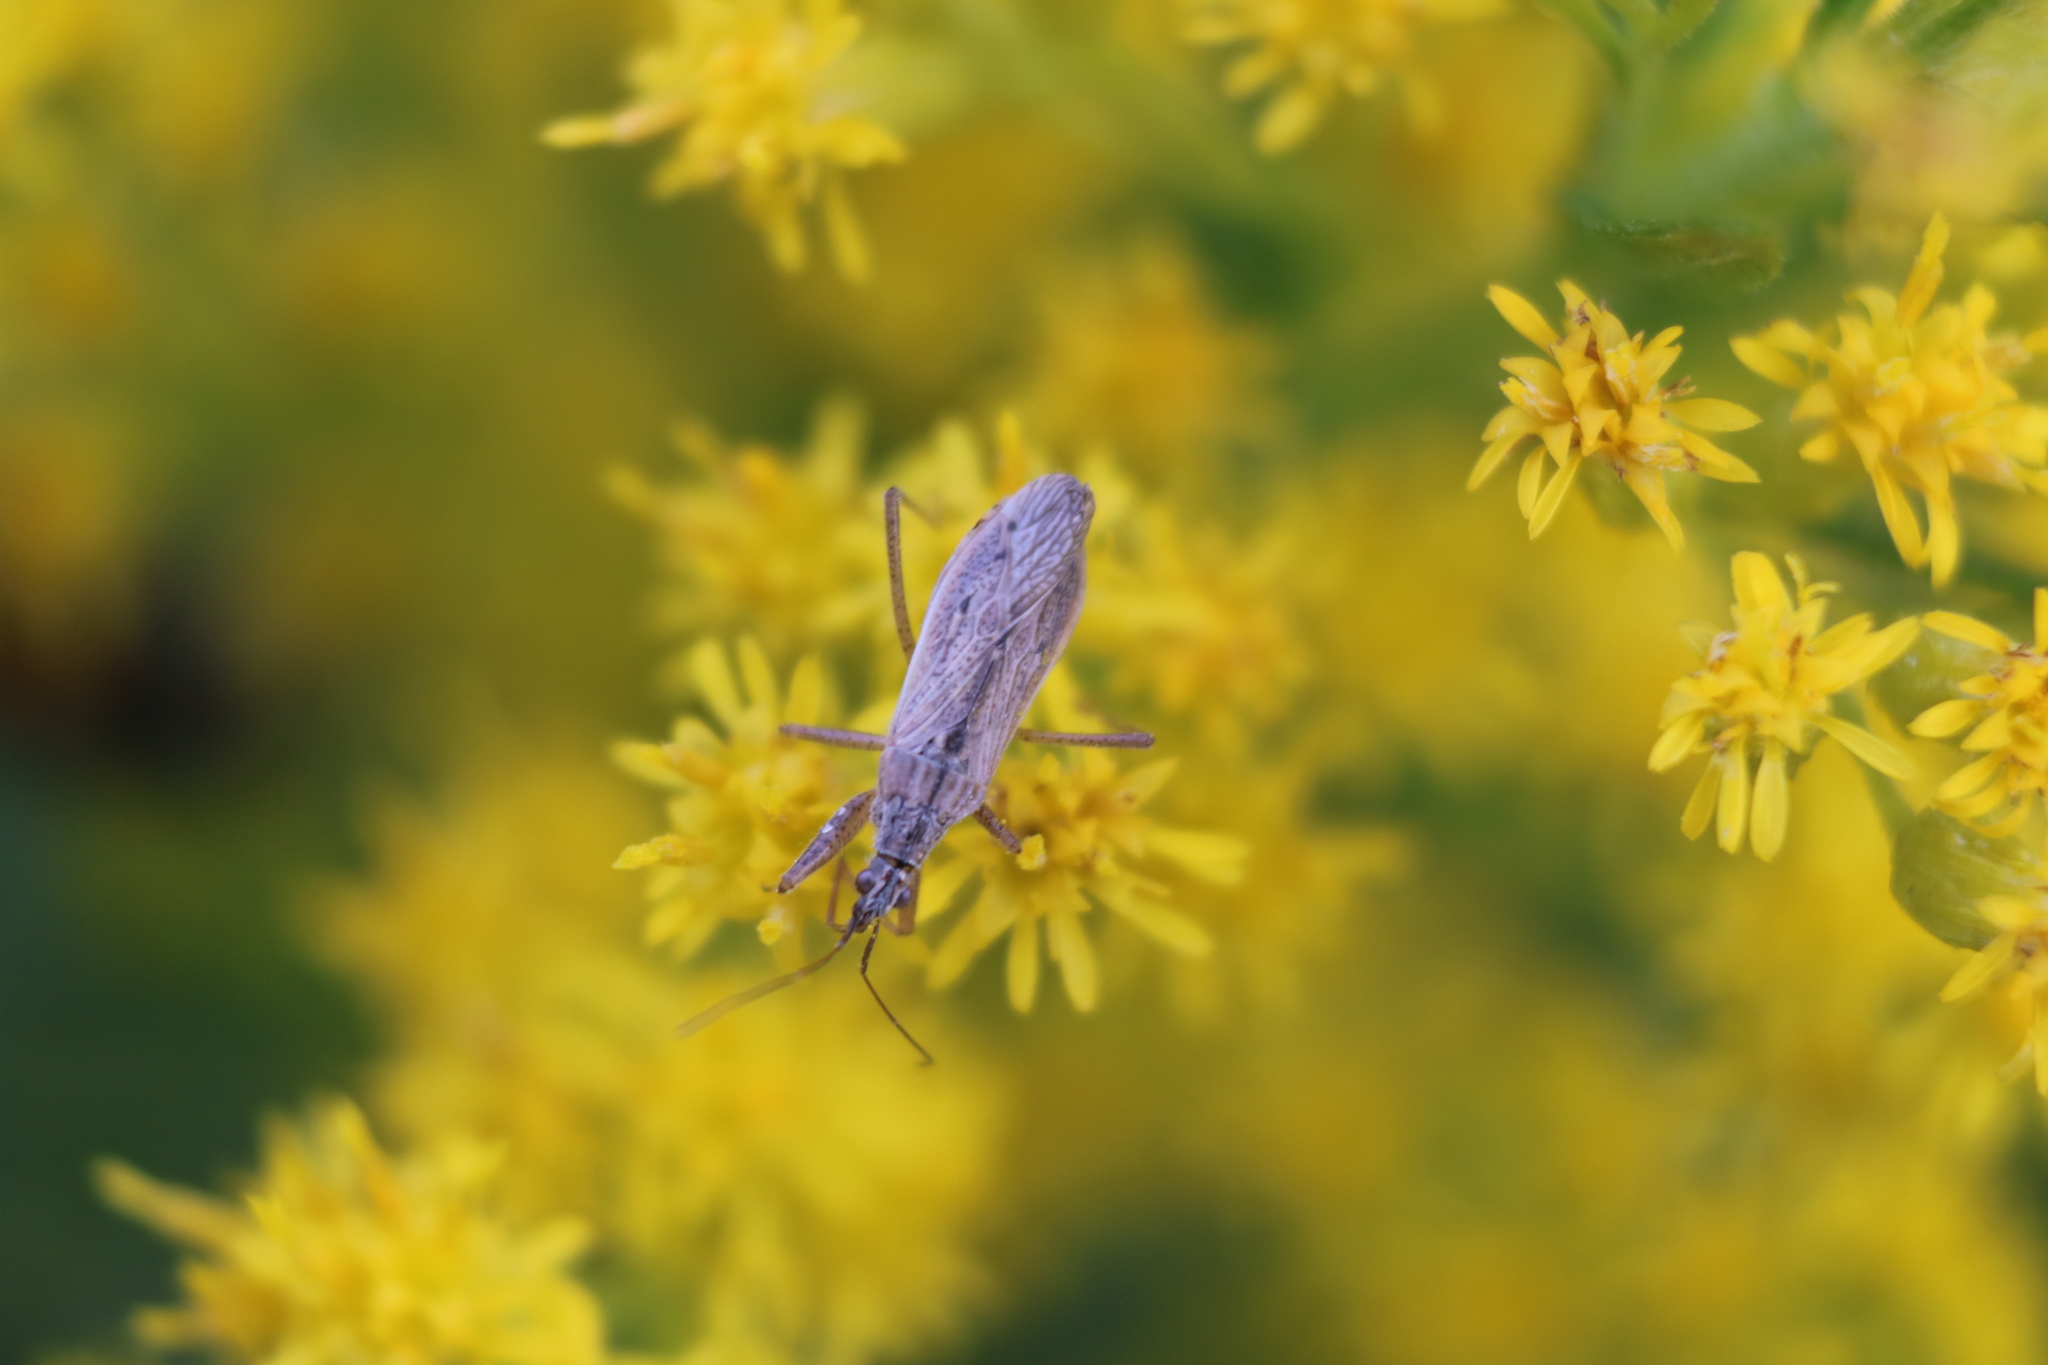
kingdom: Animalia
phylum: Arthropoda
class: Insecta
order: Hemiptera
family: Nabidae
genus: Nabis
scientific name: Nabis americoferus
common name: Common damsel bug
